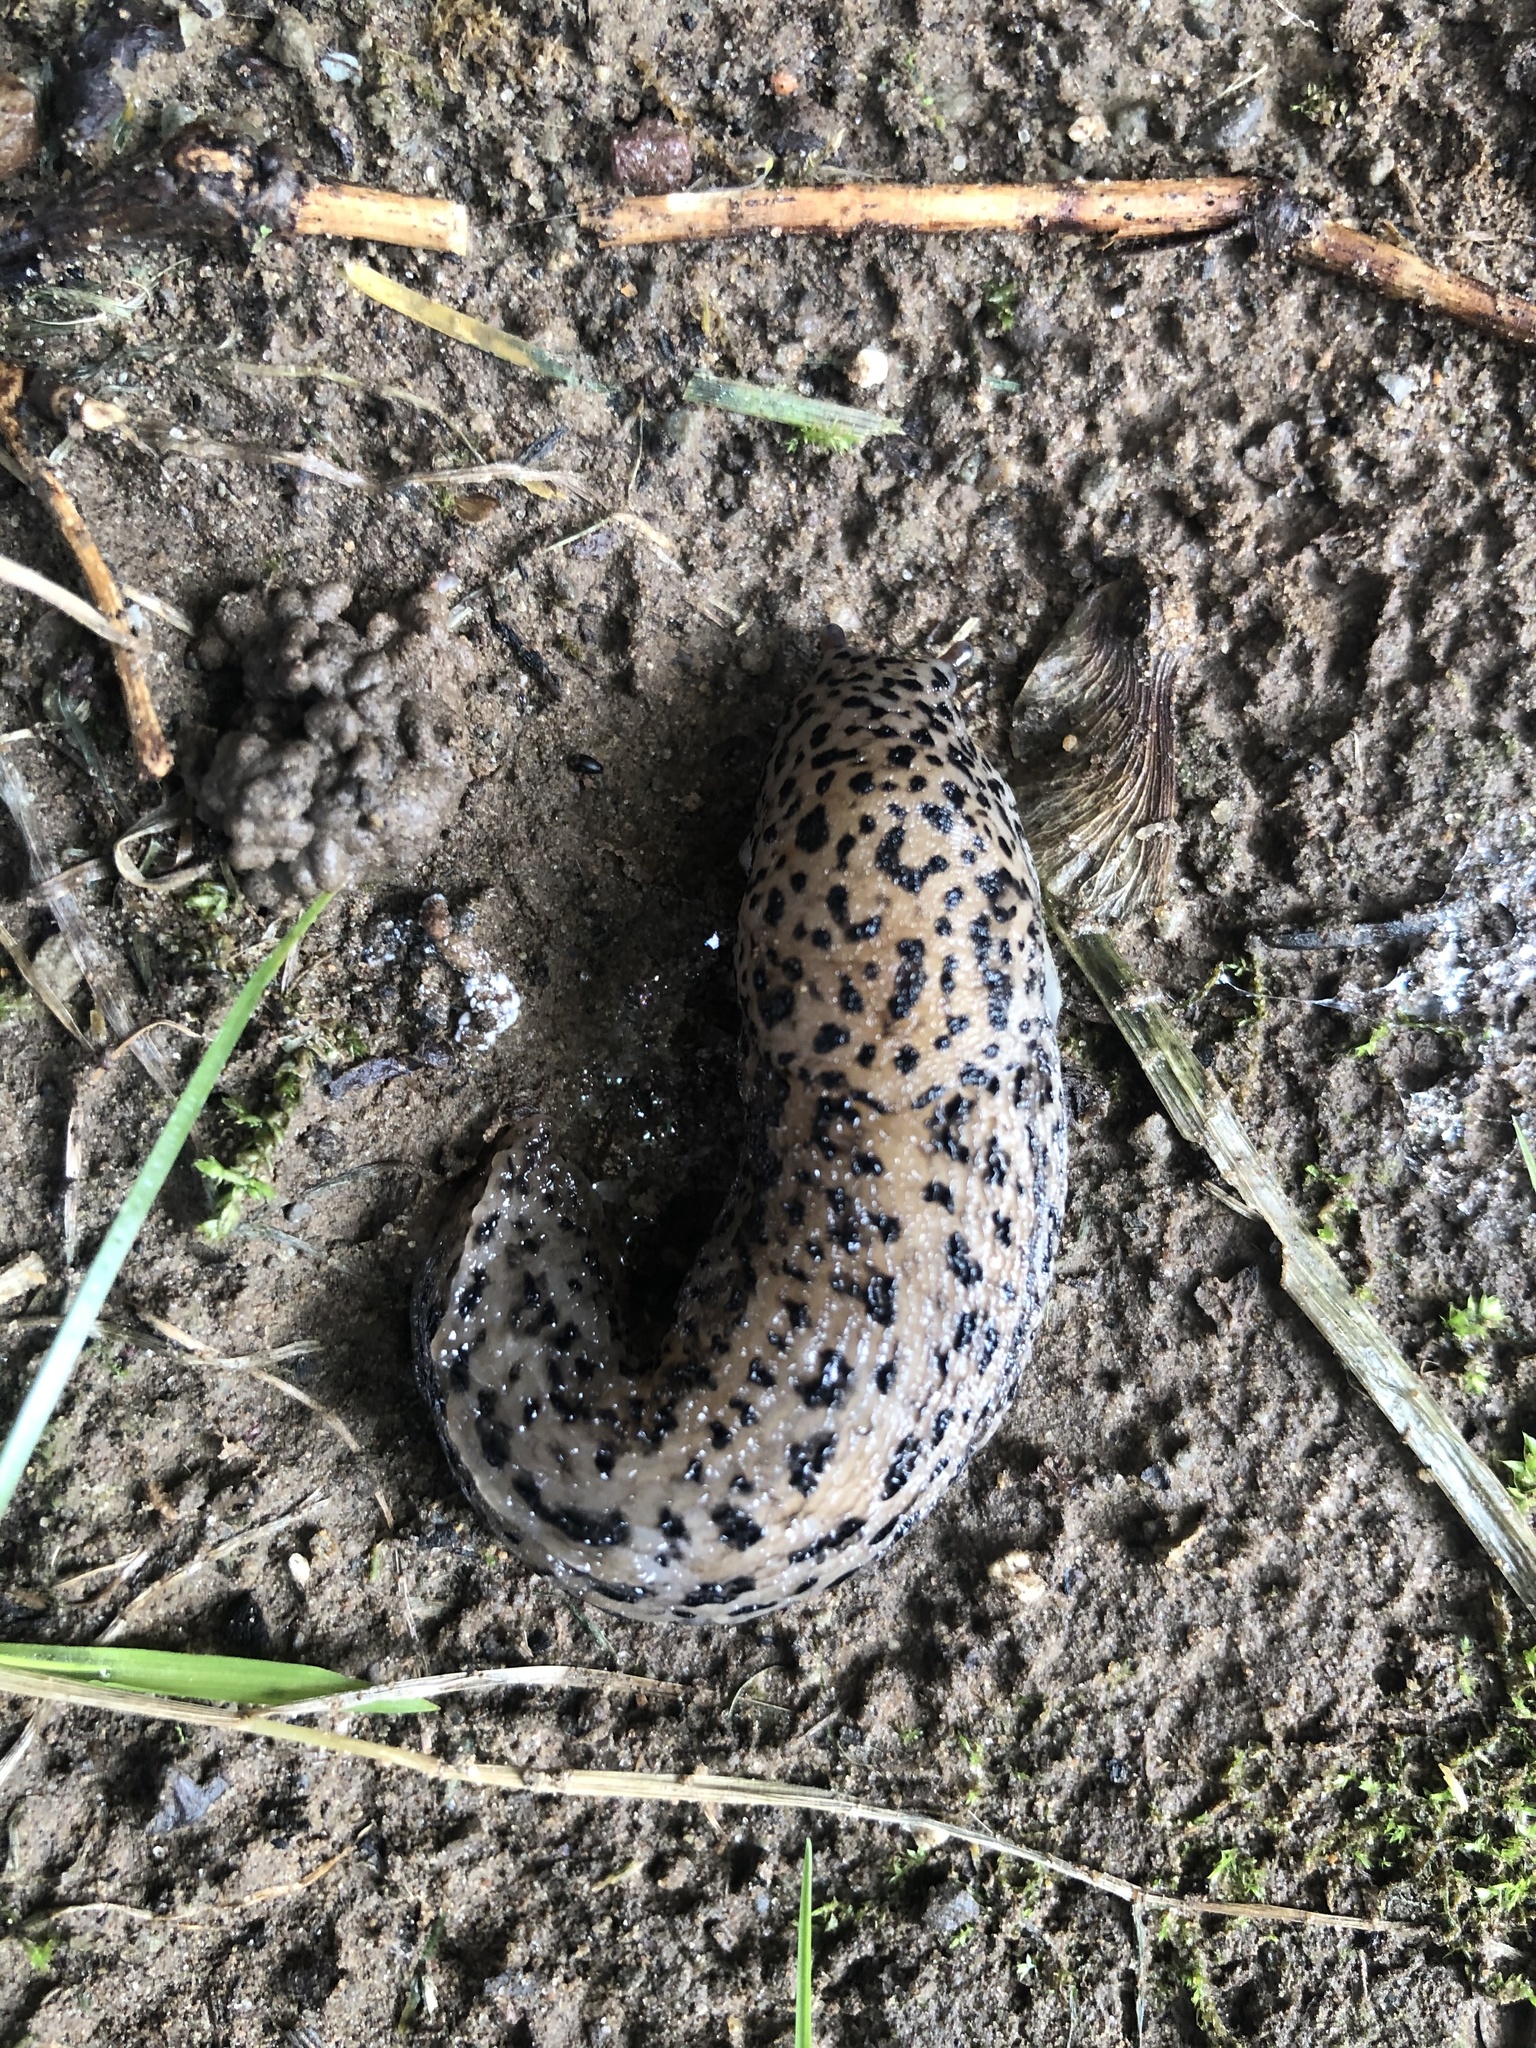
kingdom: Animalia
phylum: Mollusca
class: Gastropoda
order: Stylommatophora
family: Limacidae
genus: Limax
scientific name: Limax maximus
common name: Great grey slug
